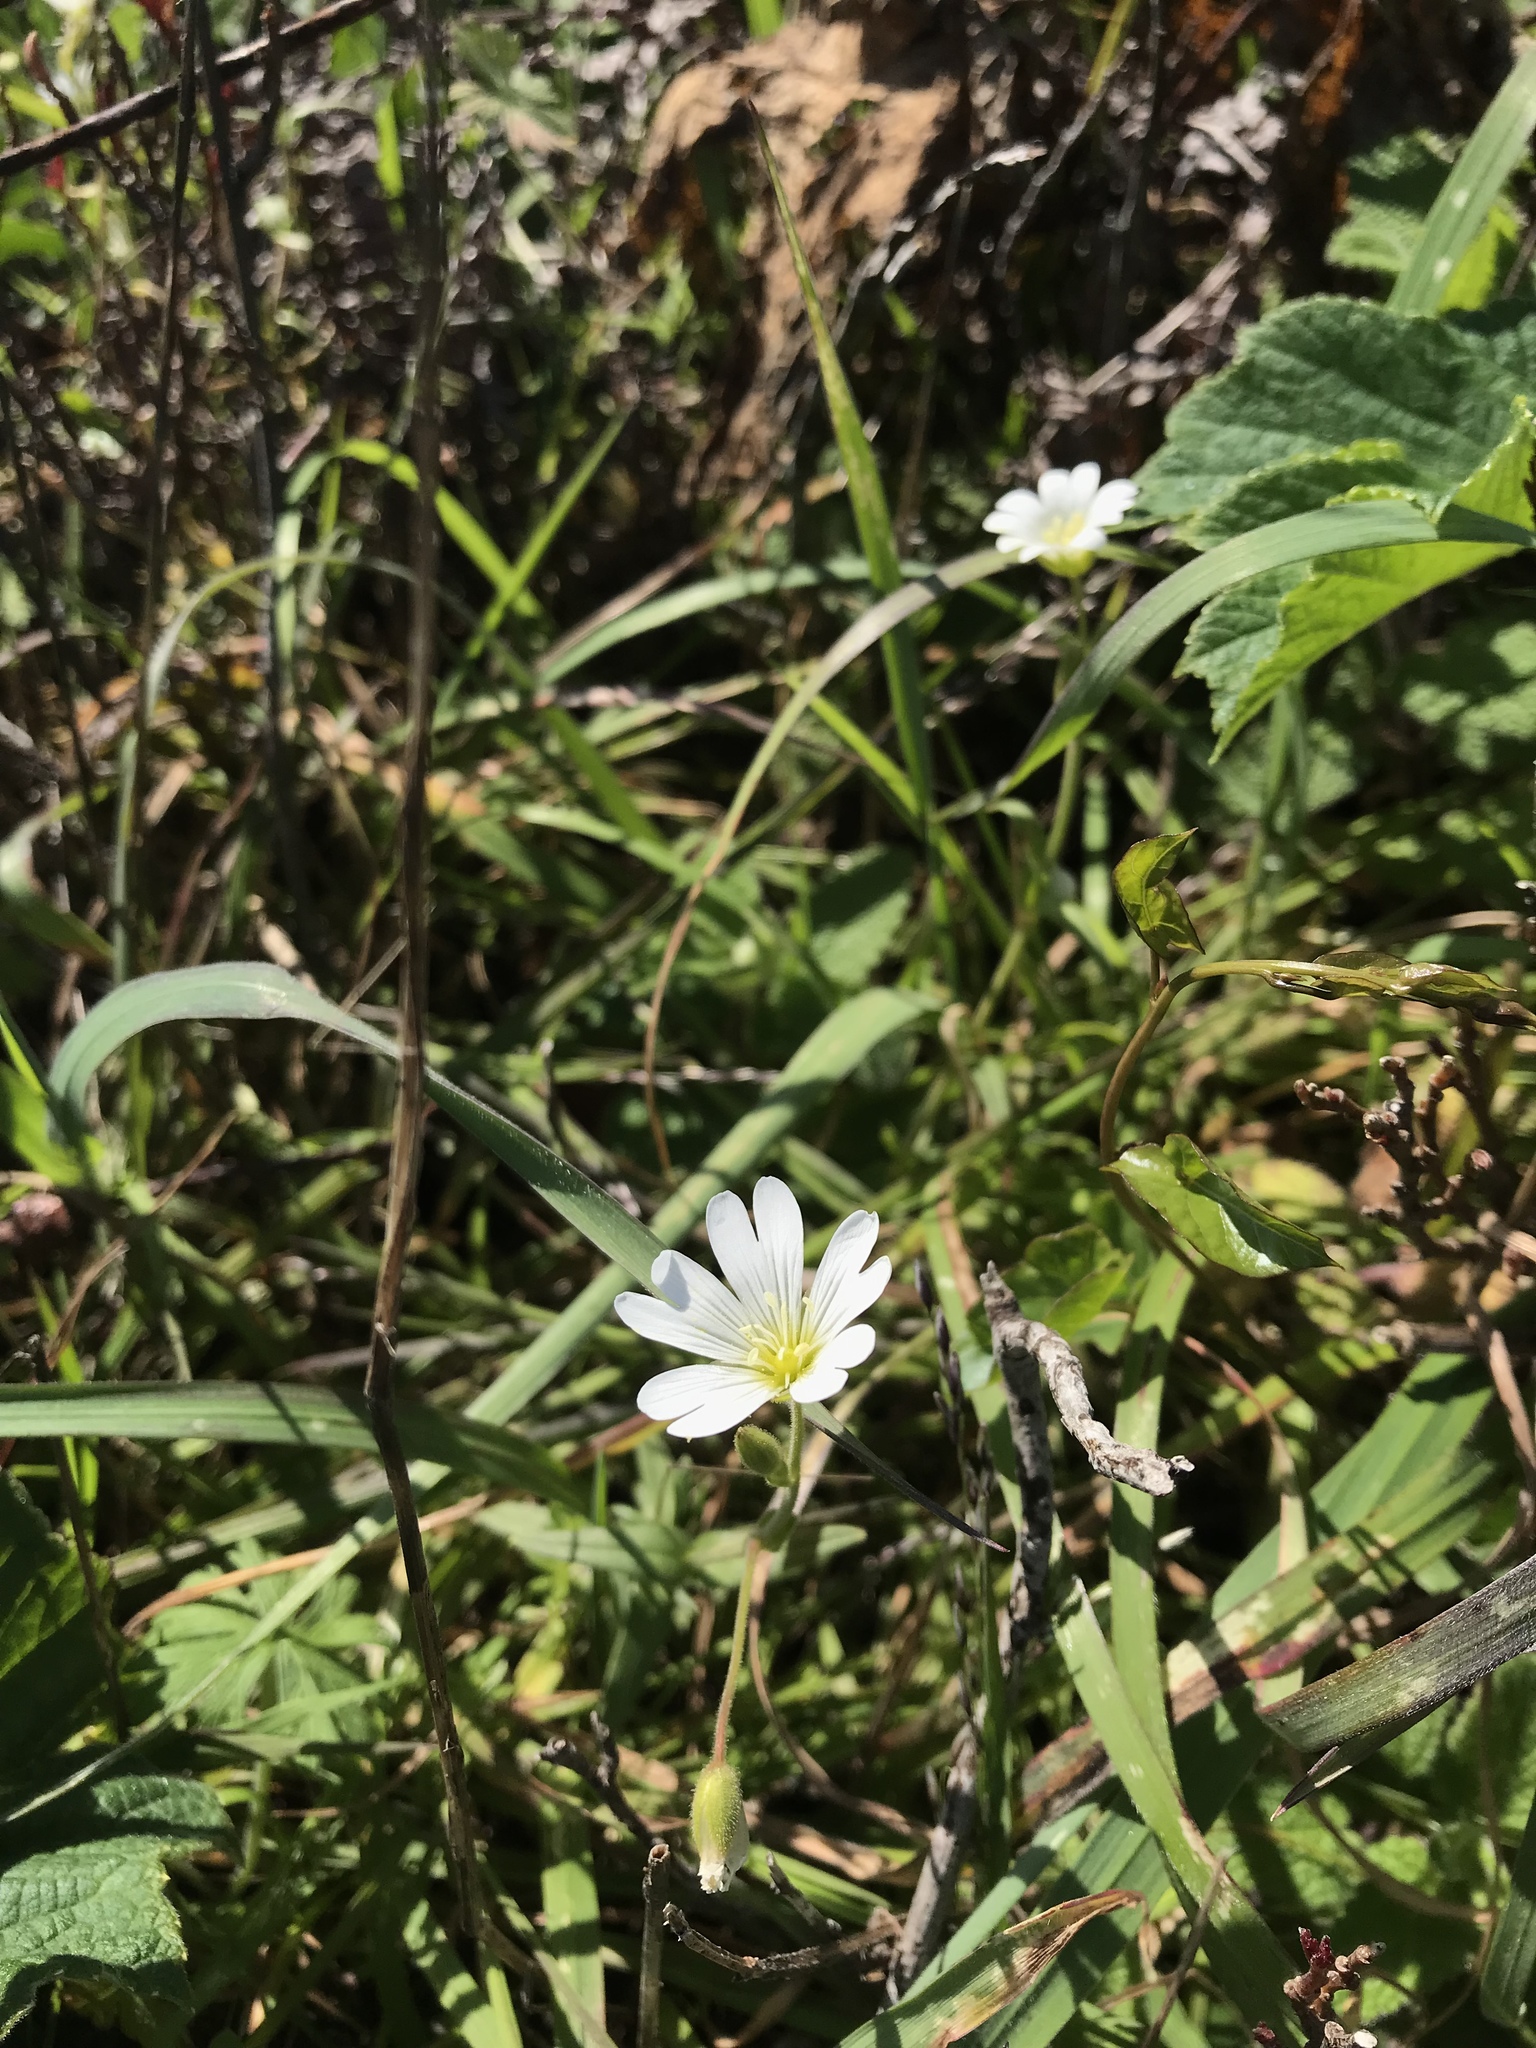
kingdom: Plantae
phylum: Tracheophyta
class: Magnoliopsida
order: Caryophyllales
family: Caryophyllaceae
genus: Cerastium
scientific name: Cerastium arvense
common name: Field mouse-ear
